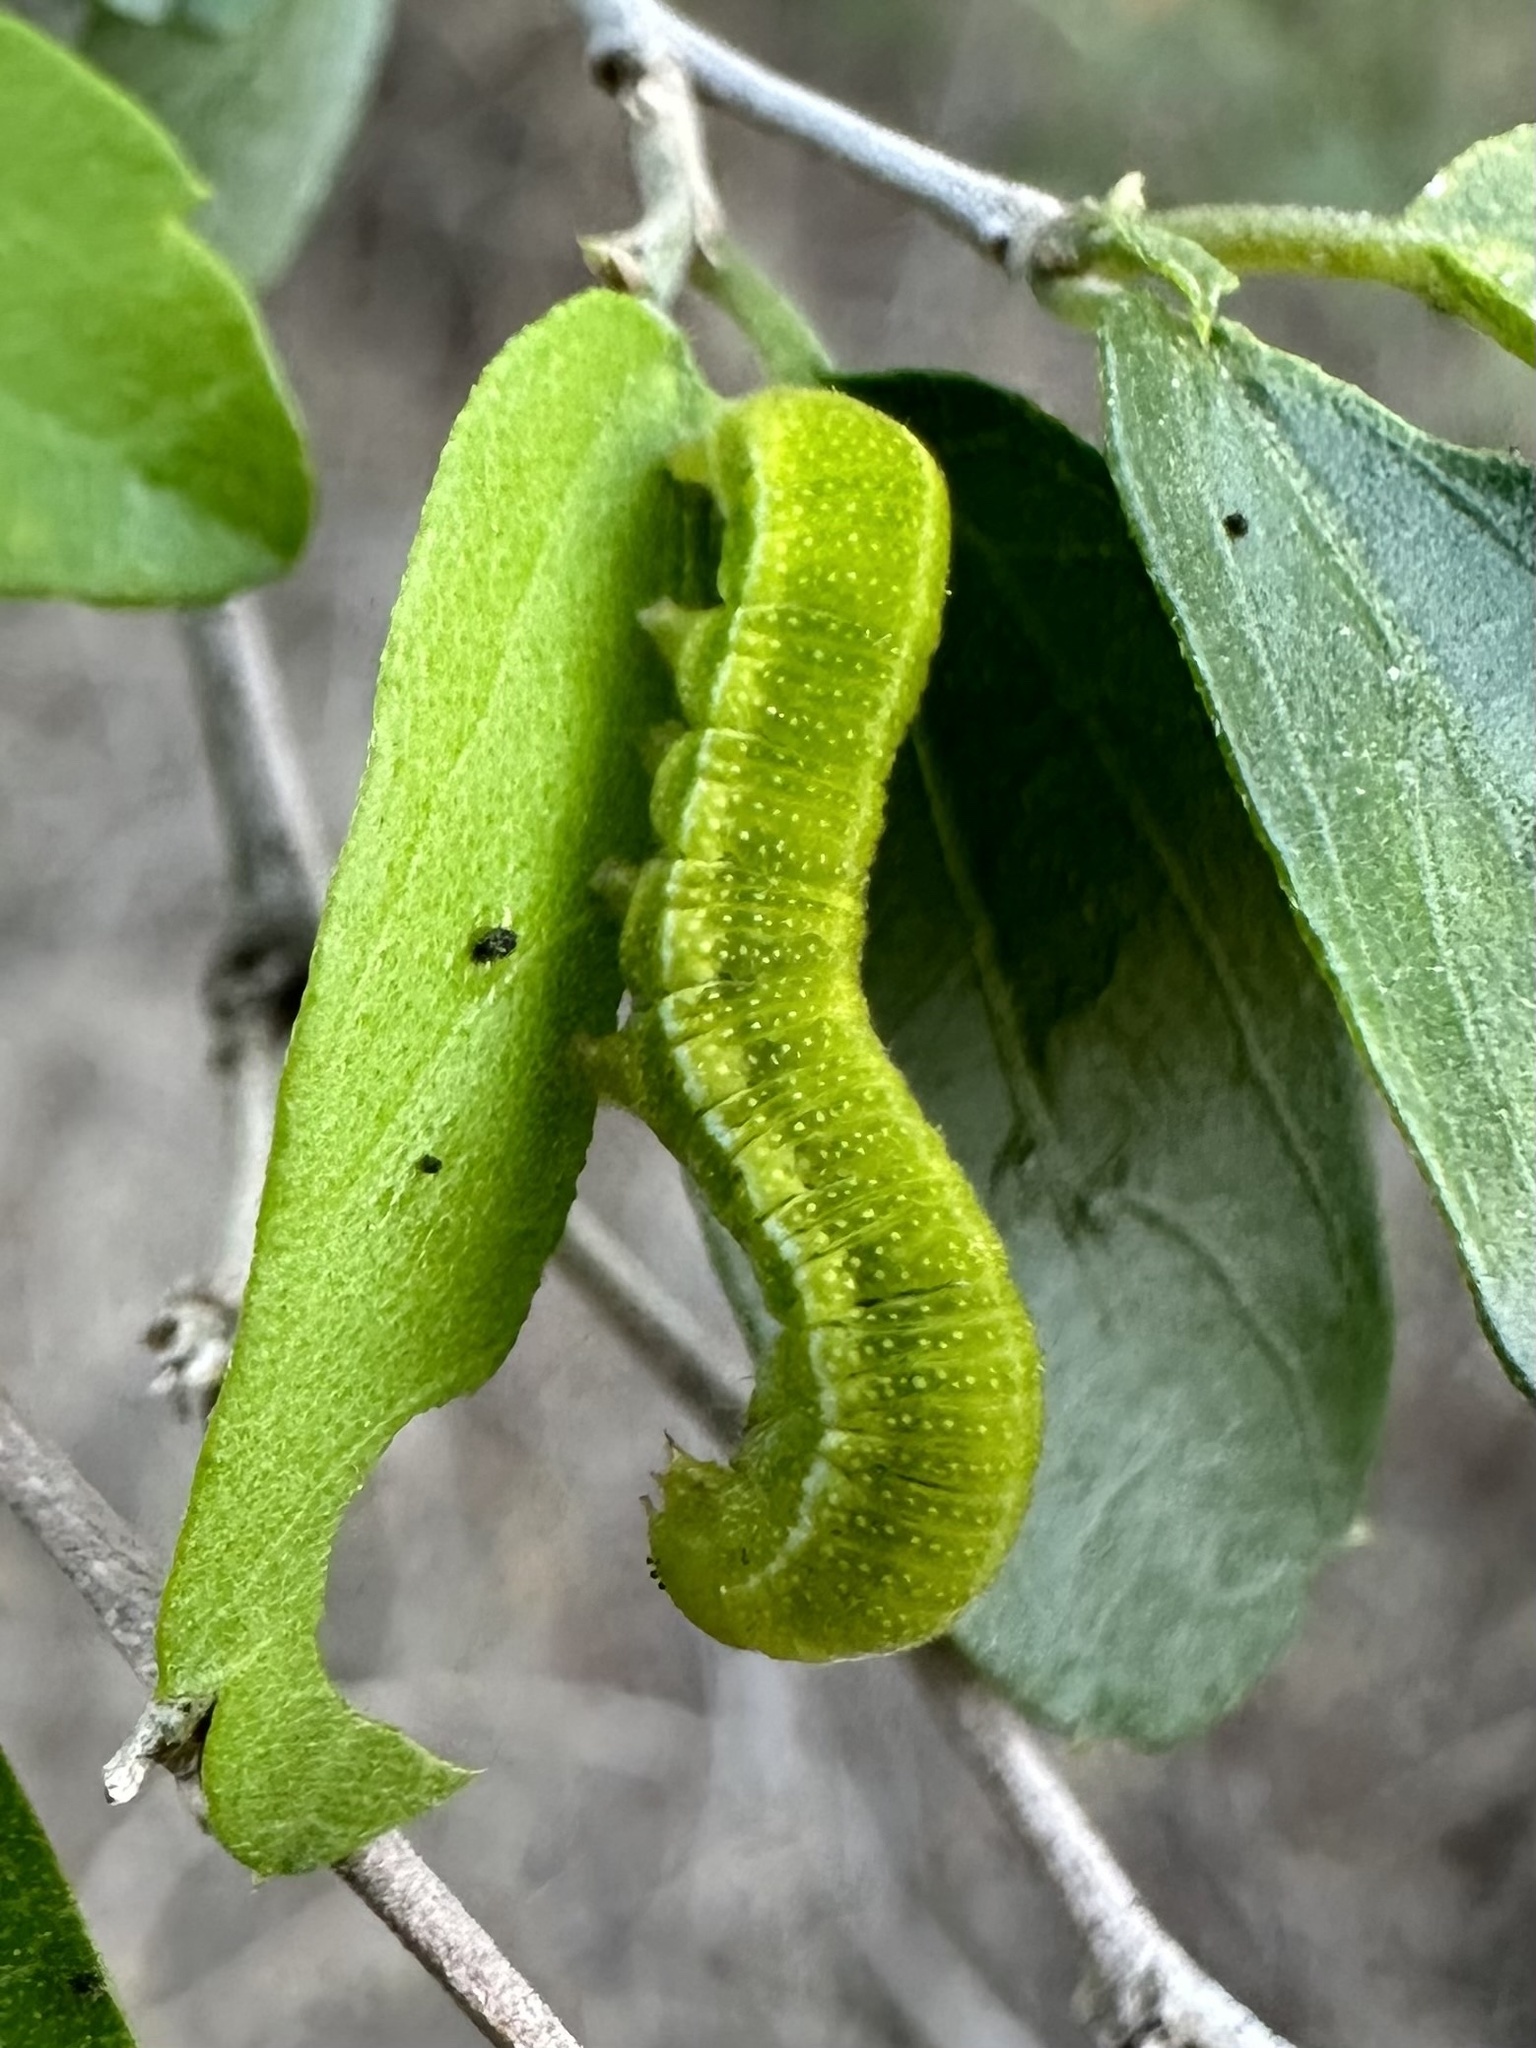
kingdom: Animalia
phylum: Arthropoda
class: Insecta
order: Lepidoptera
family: Nymphalidae
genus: Libytheana
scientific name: Libytheana carinenta
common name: American snout
